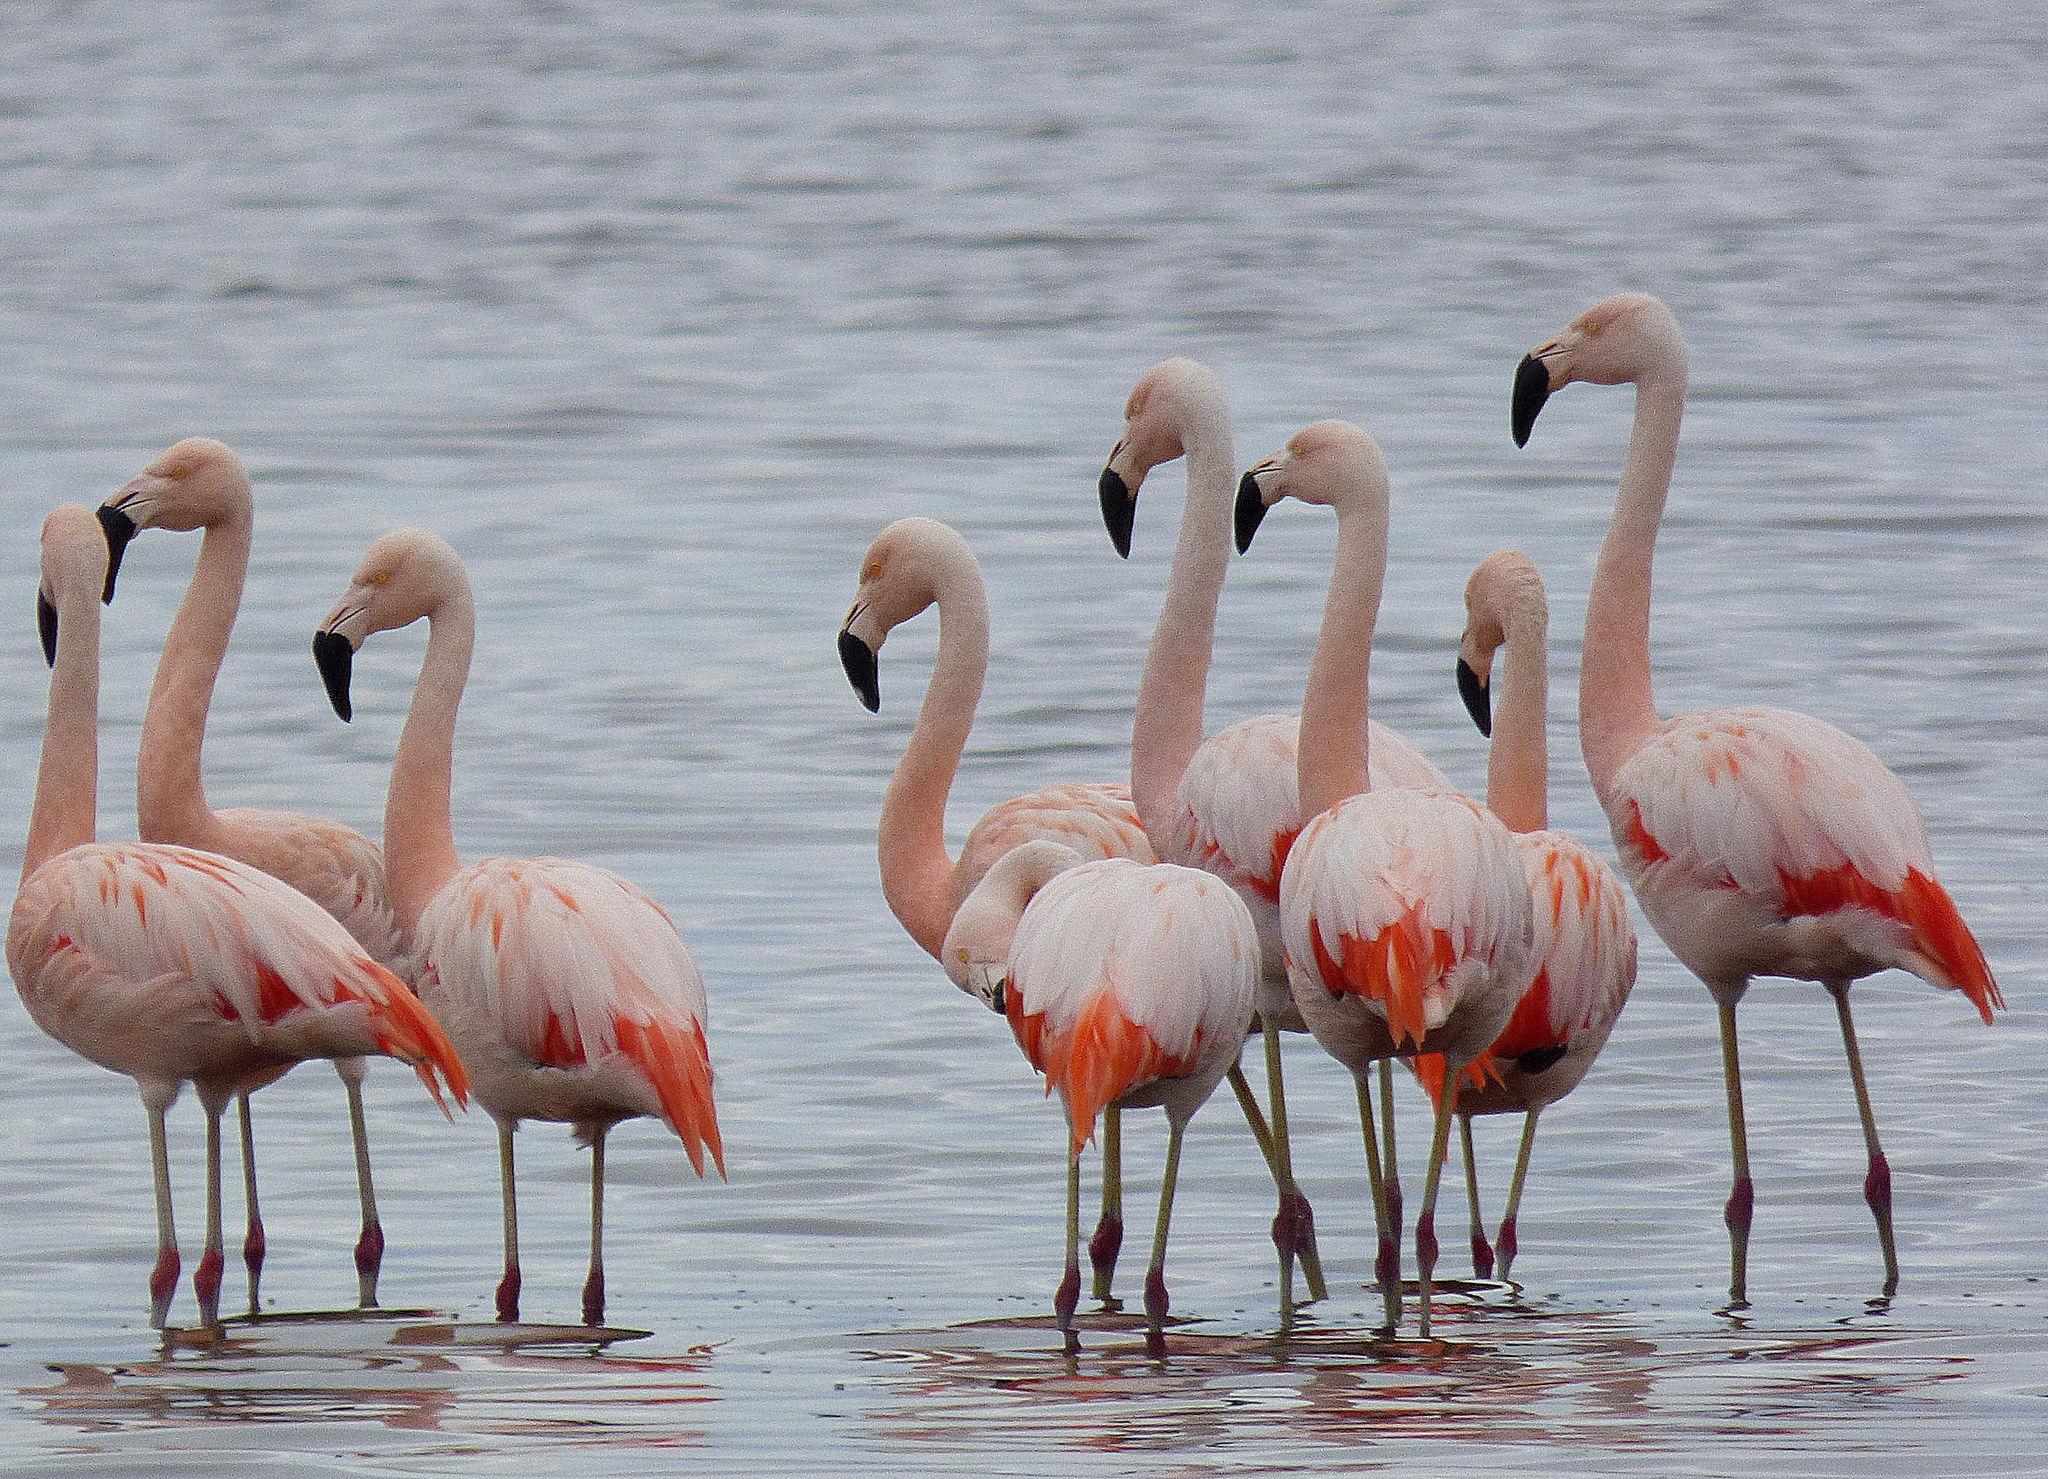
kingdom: Animalia
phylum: Chordata
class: Aves
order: Phoenicopteriformes
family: Phoenicopteridae
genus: Phoenicopterus
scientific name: Phoenicopterus chilensis
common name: Chilean flamingo
